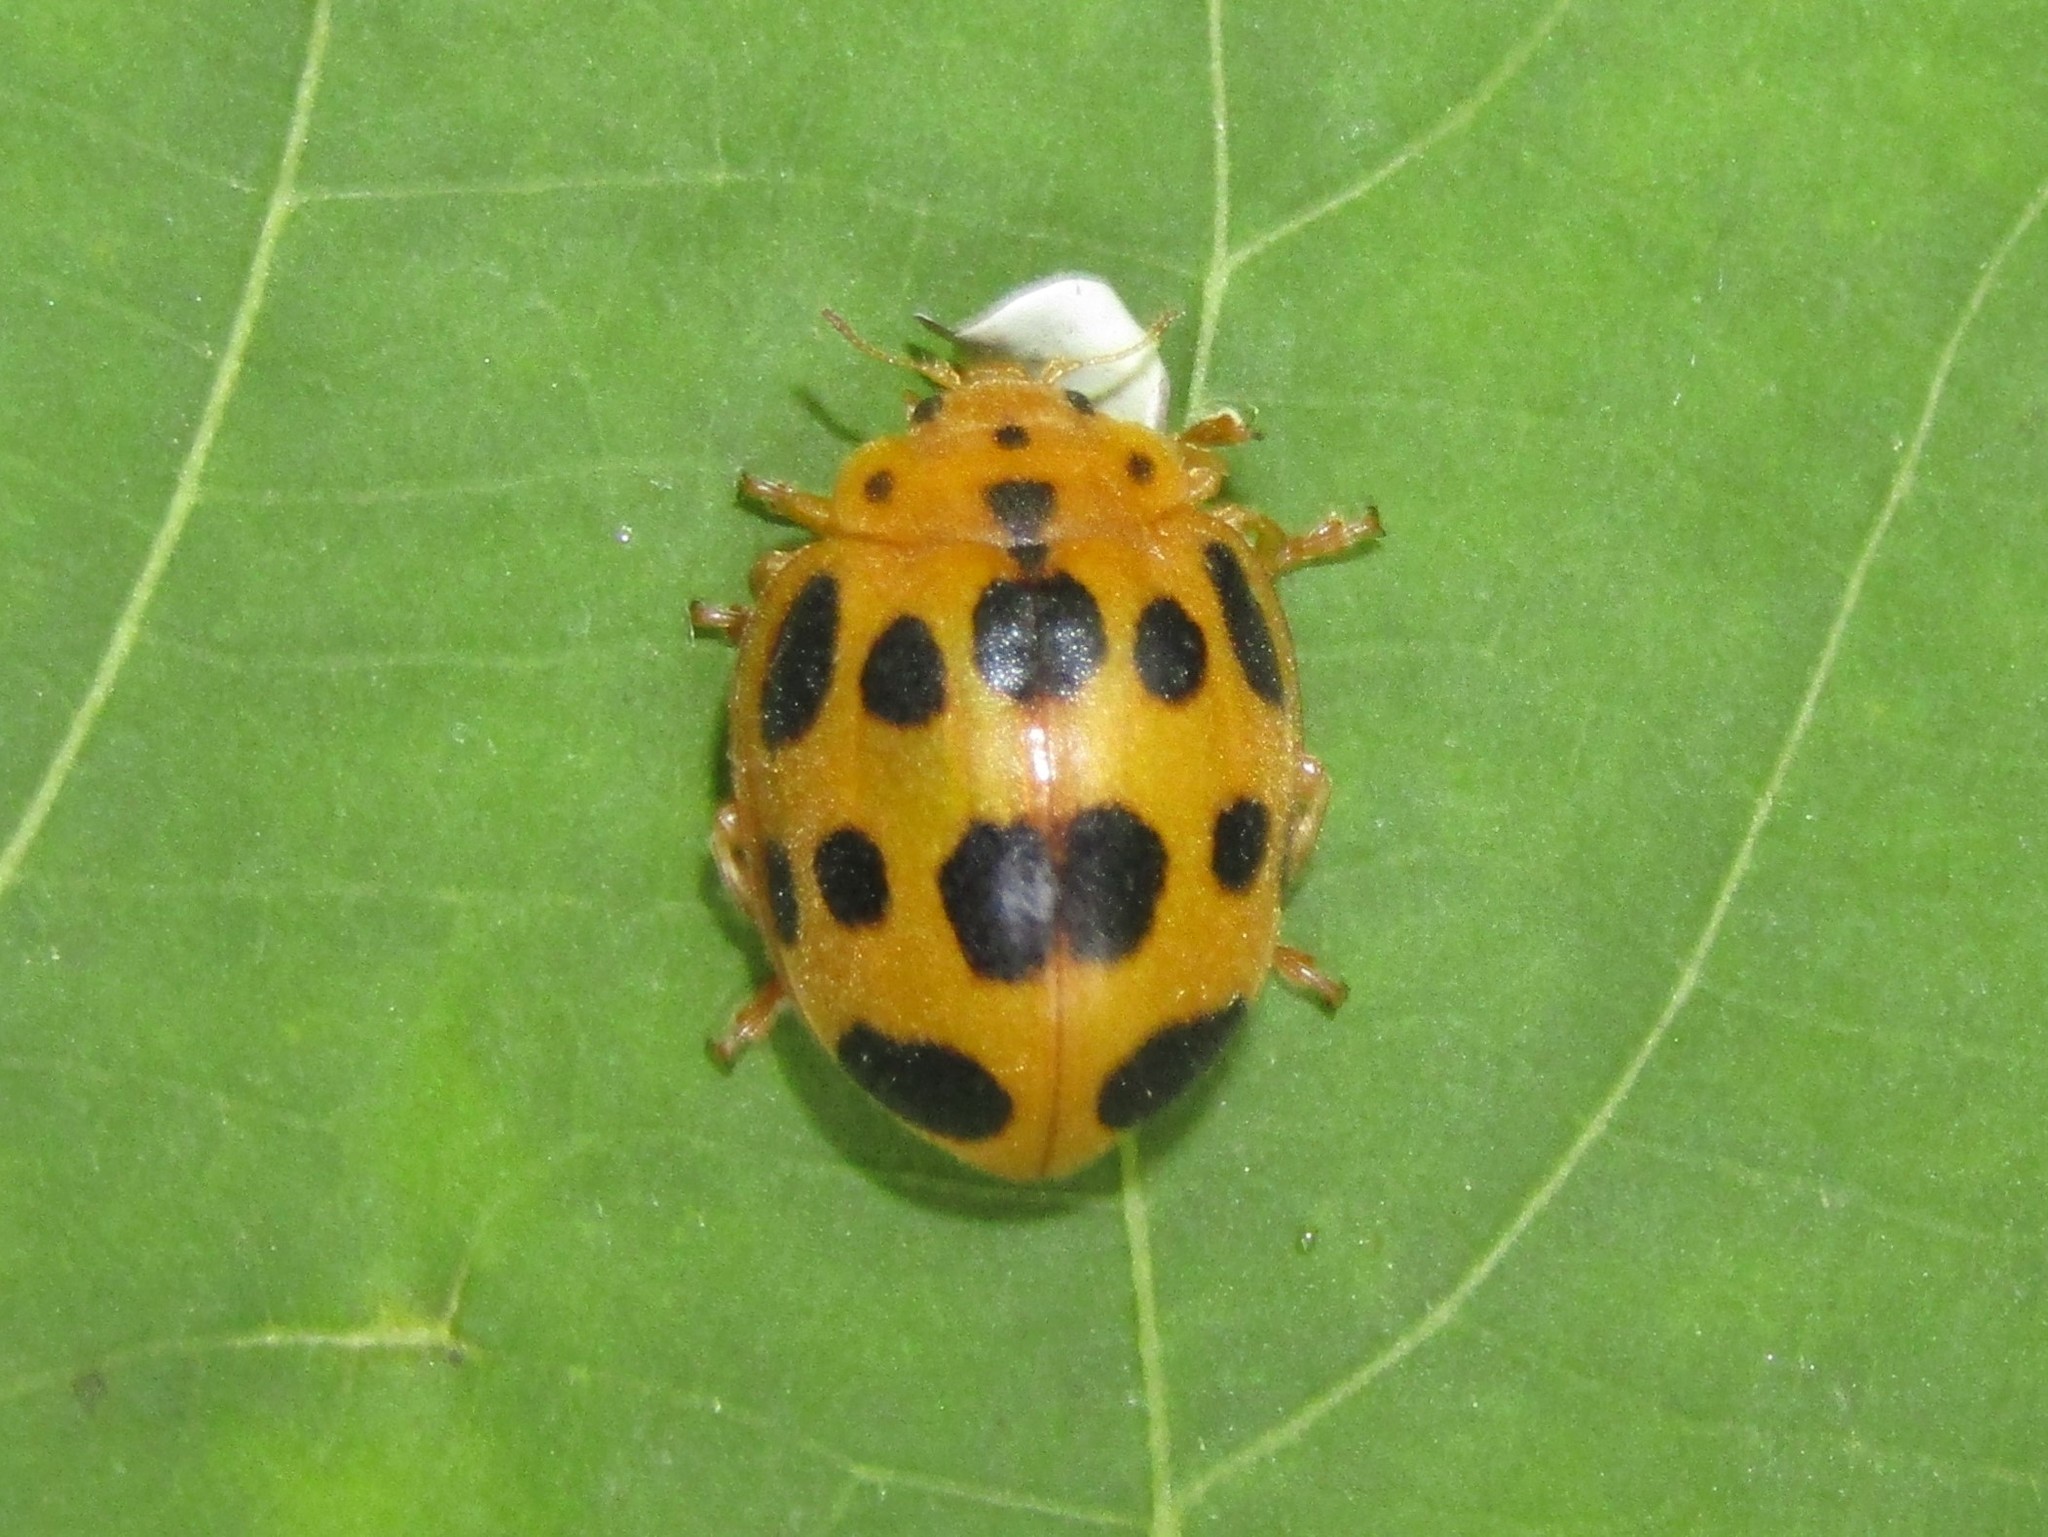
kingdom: Animalia
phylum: Arthropoda
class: Insecta
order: Coleoptera
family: Coccinellidae
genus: Epilachna
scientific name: Epilachna borealis
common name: Squash beetle
